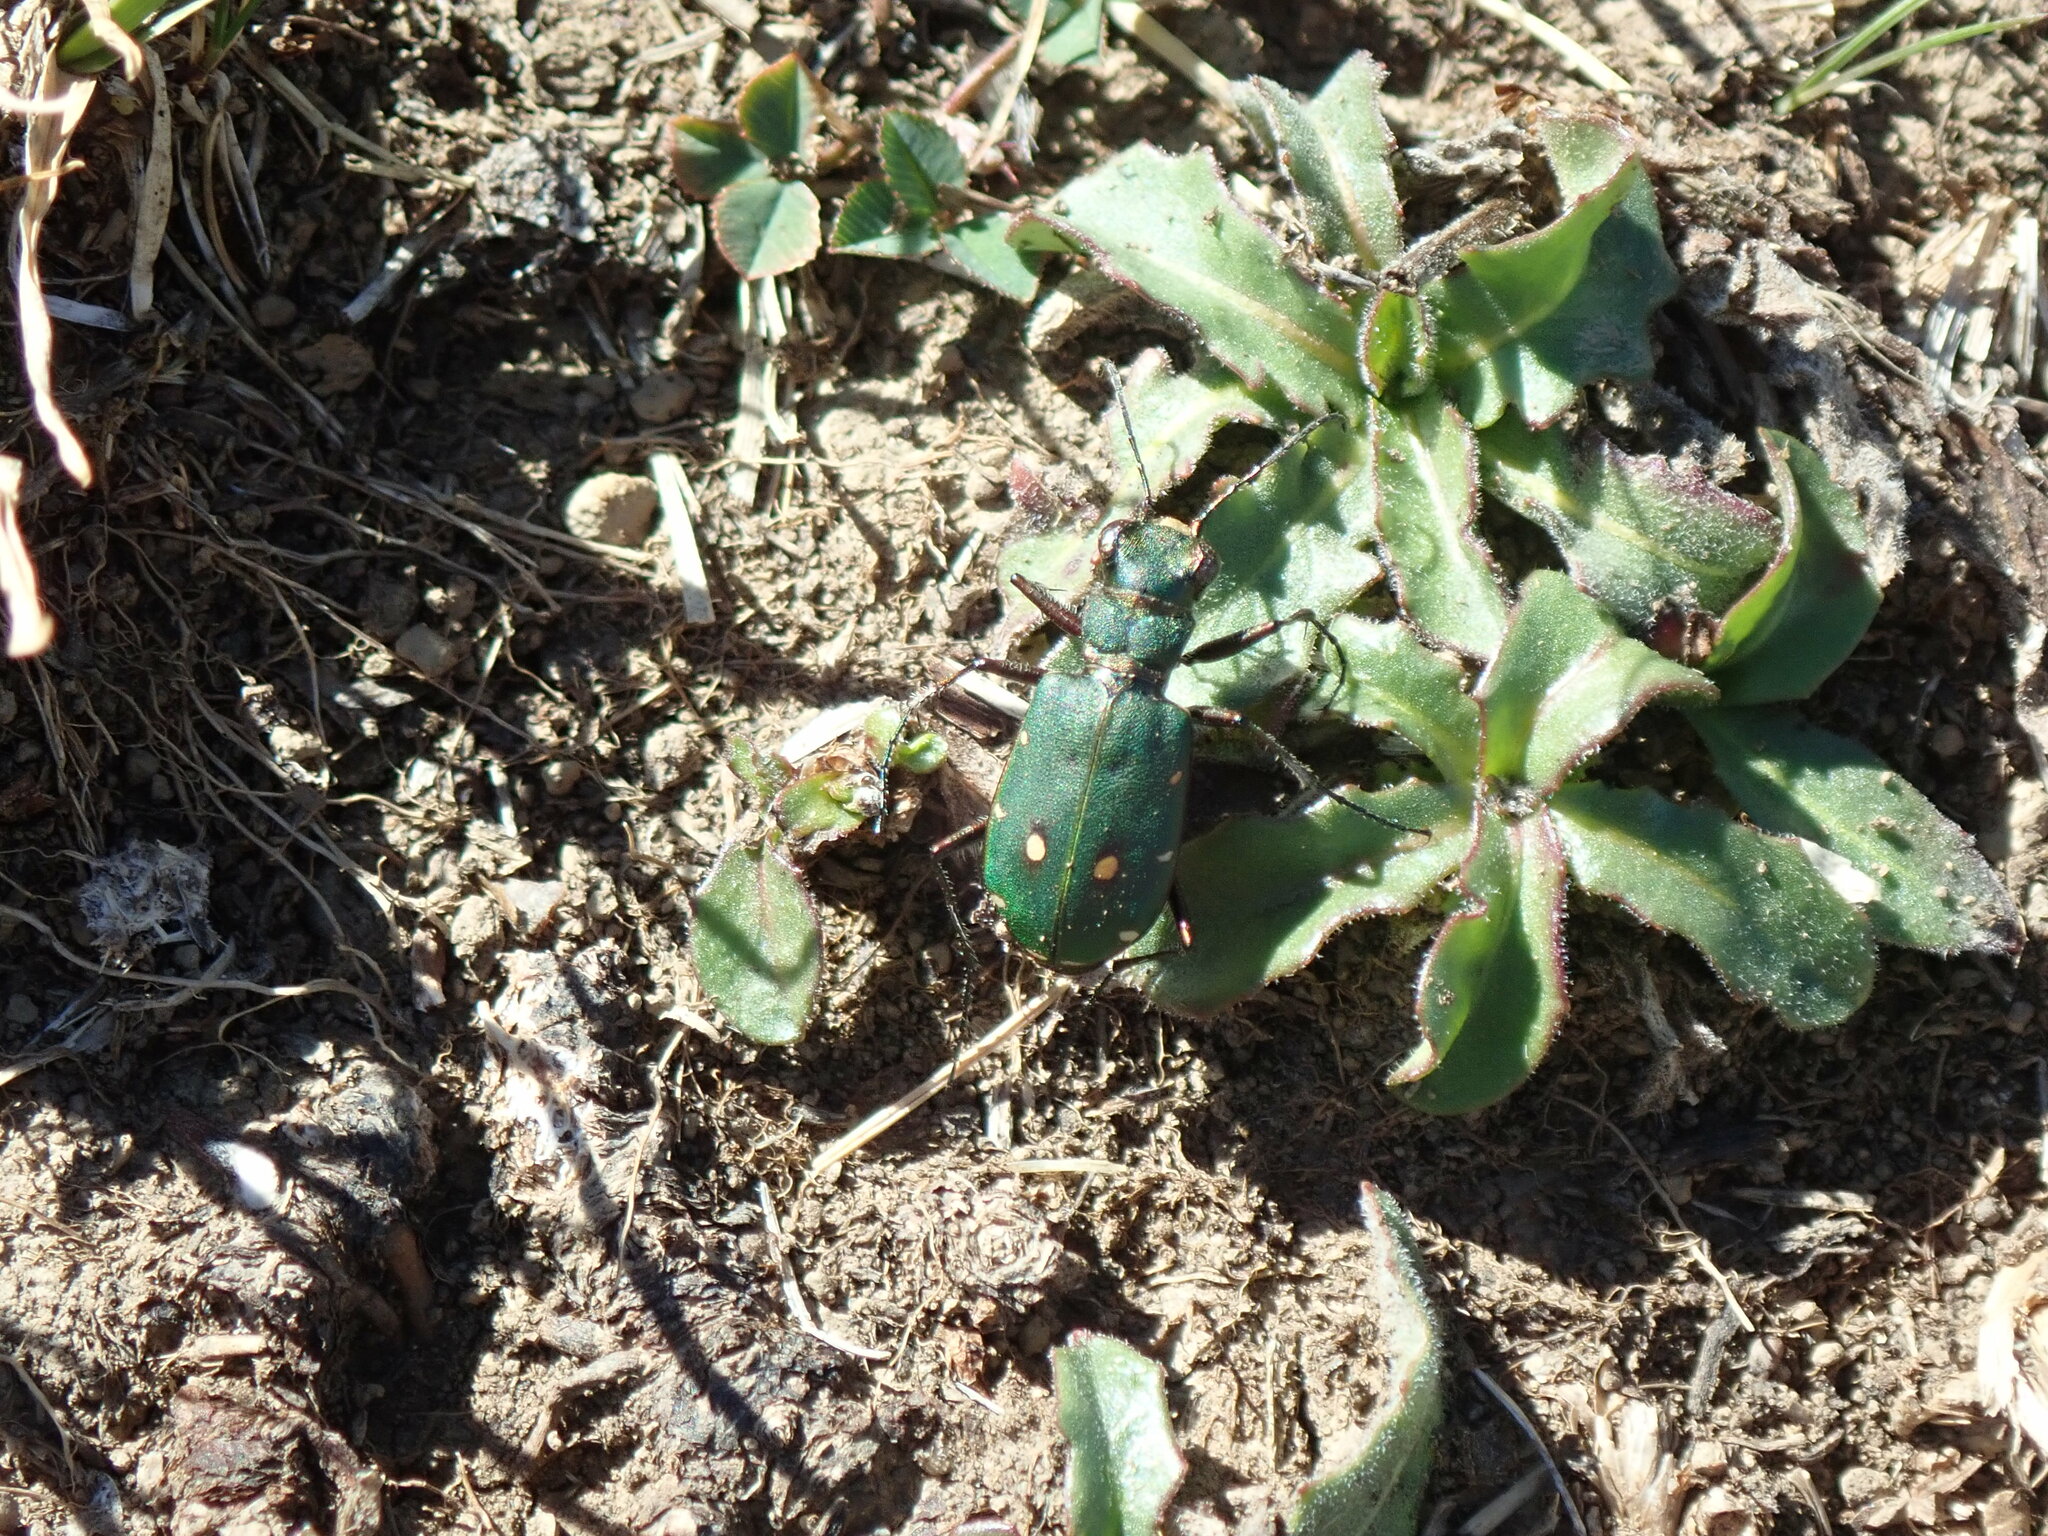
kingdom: Animalia
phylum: Arthropoda
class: Insecta
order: Coleoptera
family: Carabidae
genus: Cicindela
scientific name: Cicindela campestris
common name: Common tiger beetle
